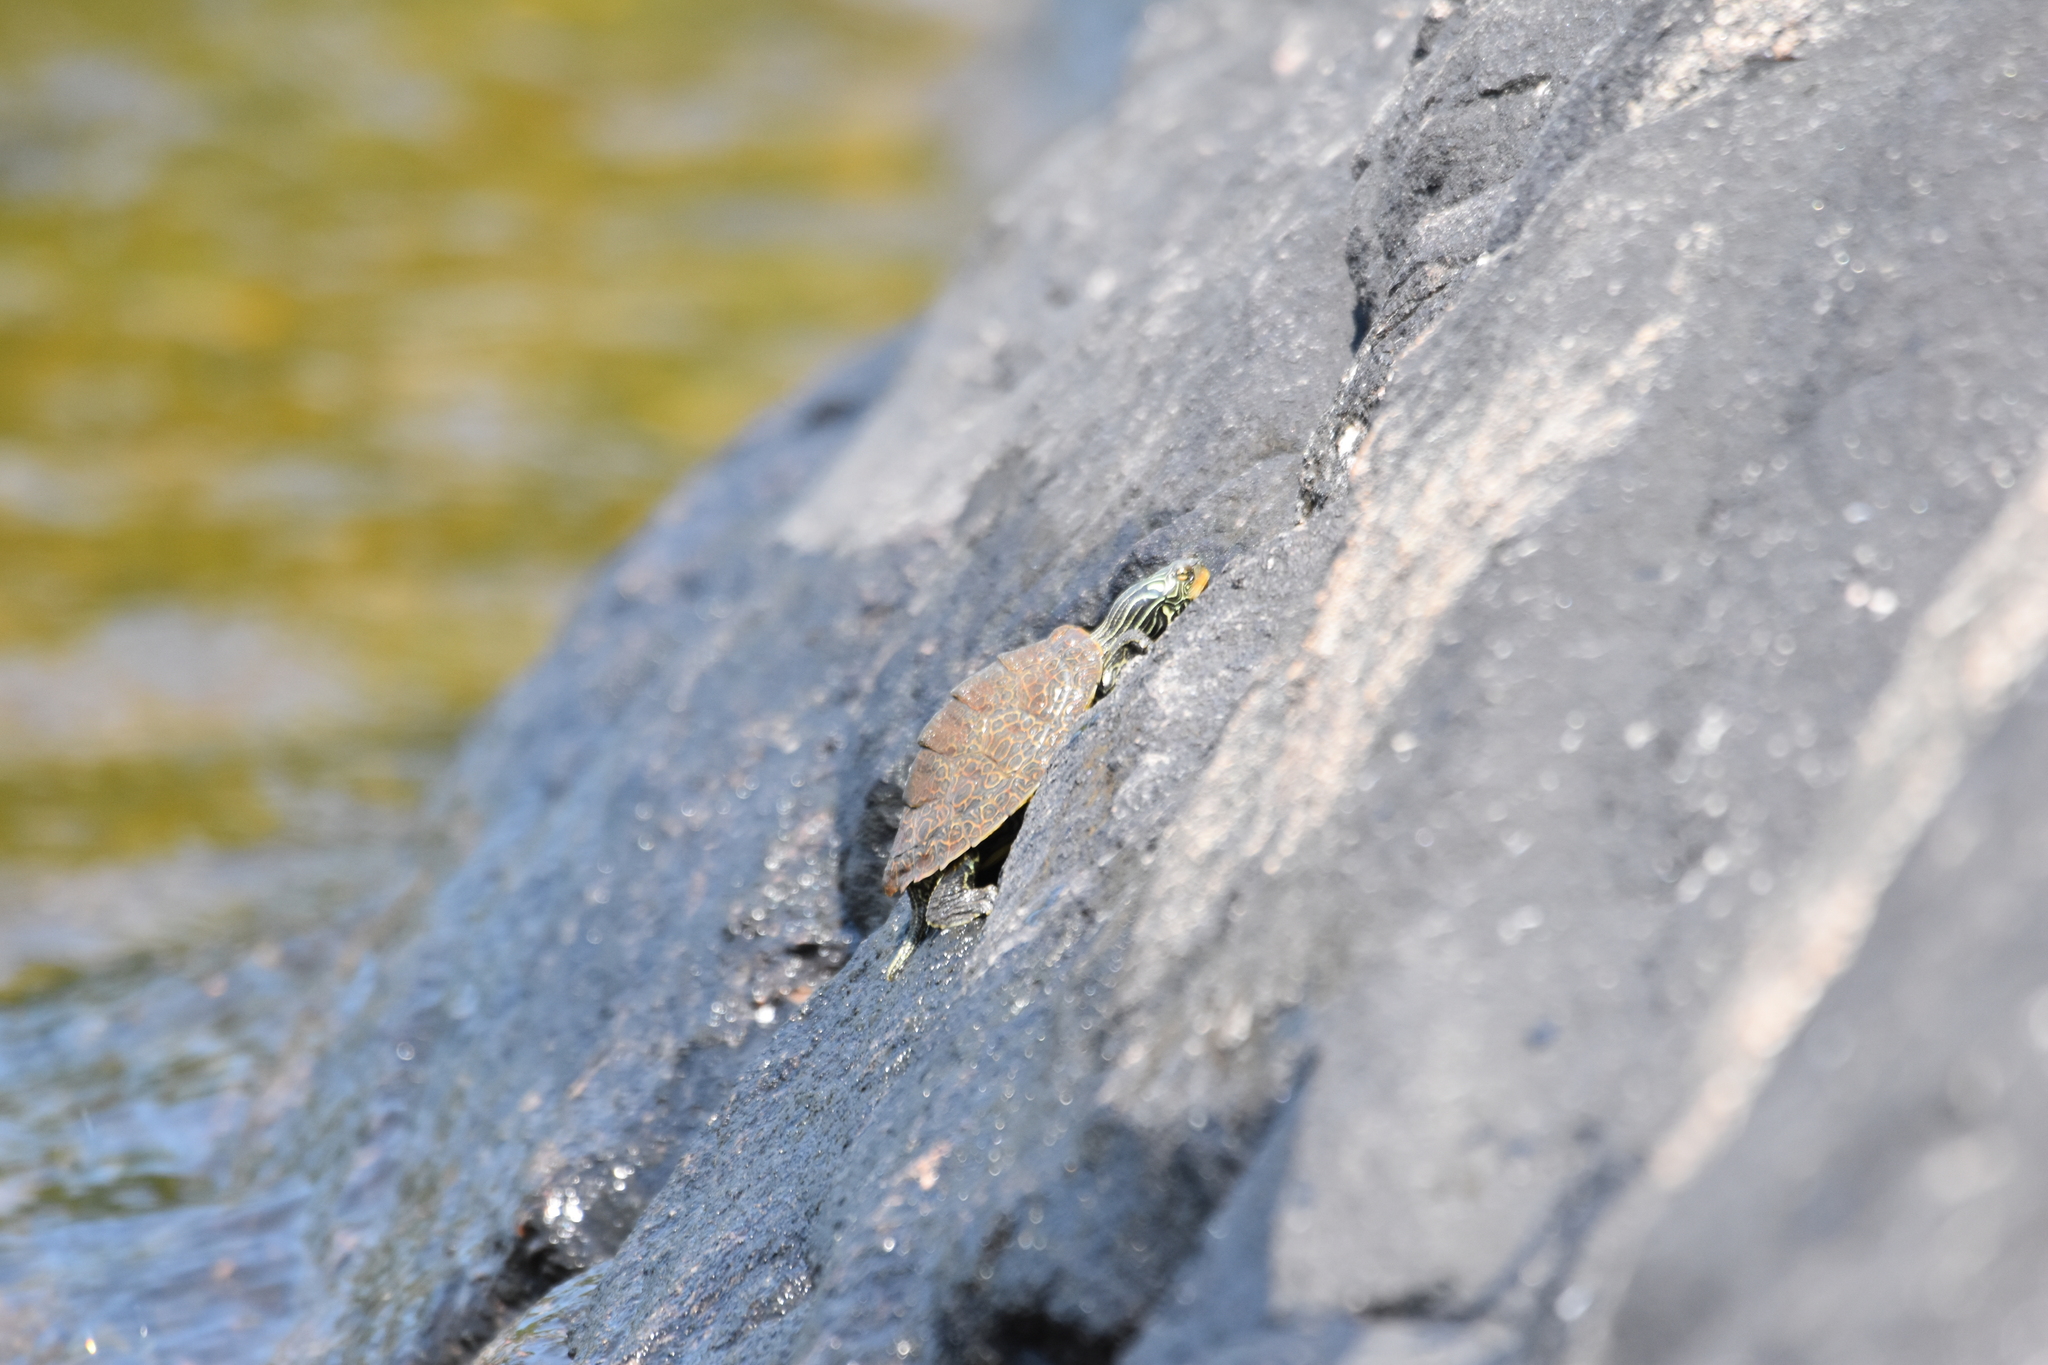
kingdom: Animalia
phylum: Chordata
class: Testudines
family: Emydidae
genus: Graptemys
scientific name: Graptemys geographica
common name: Common map turtle
